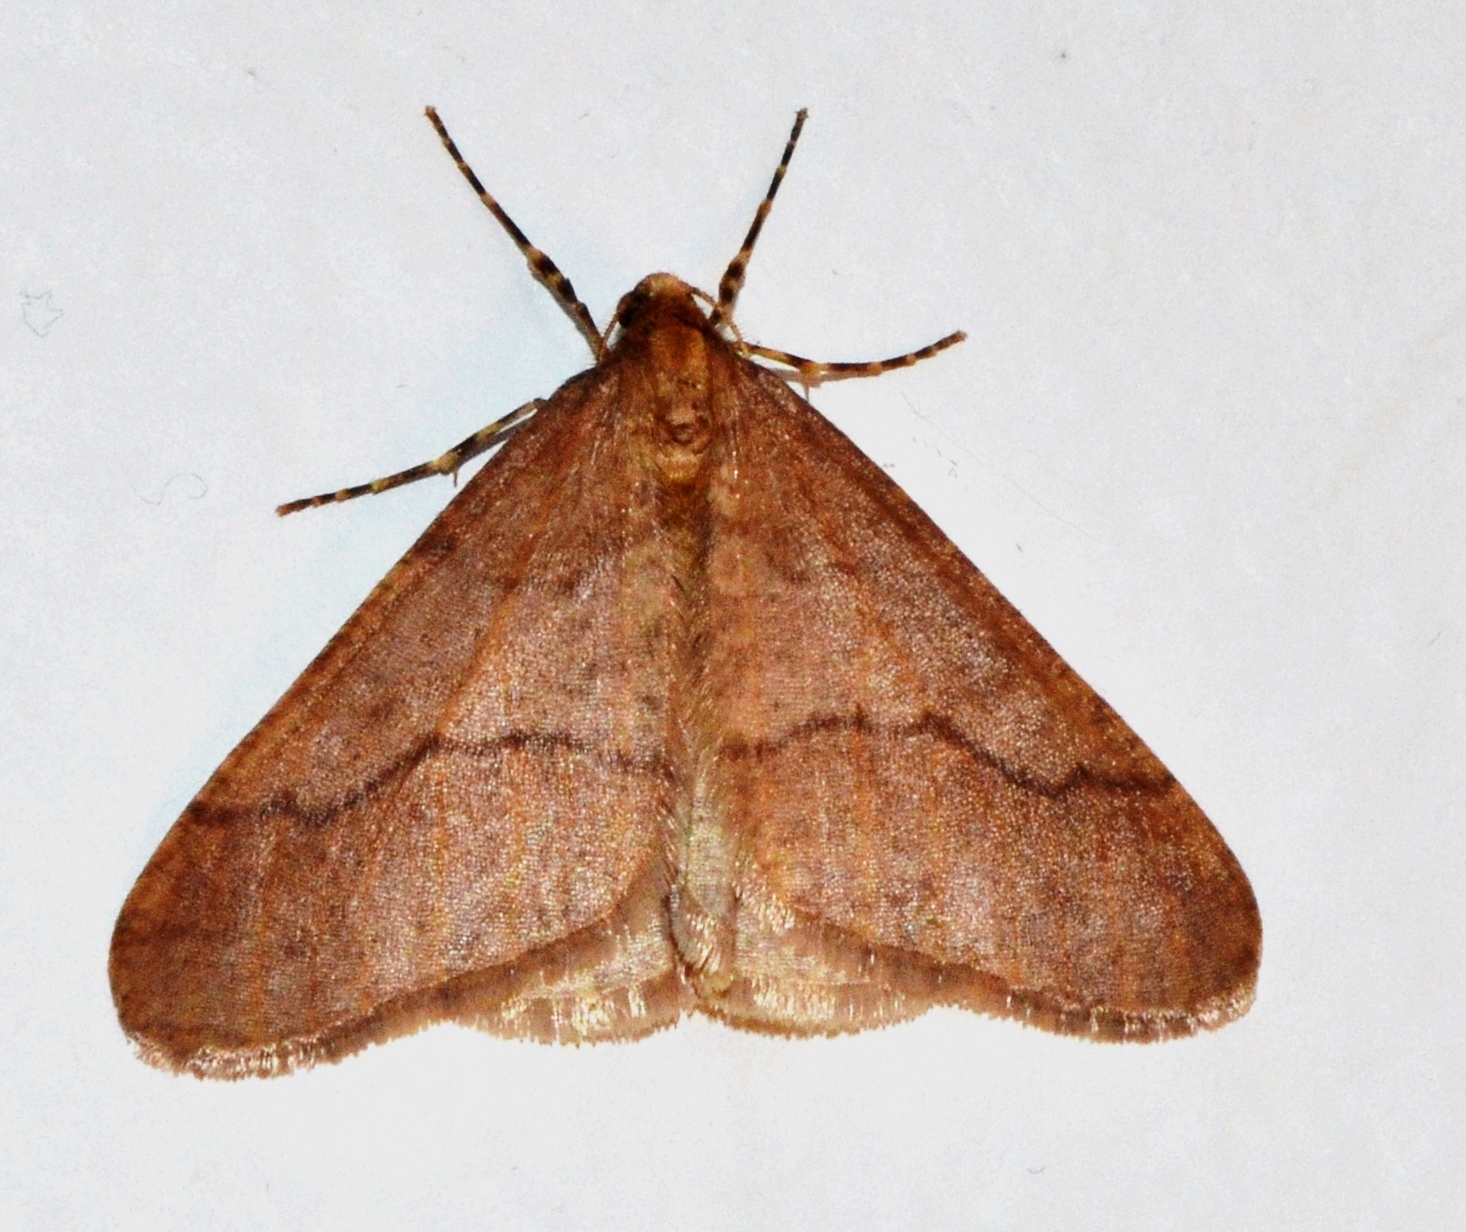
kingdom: Animalia
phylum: Arthropoda
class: Insecta
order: Lepidoptera
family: Geometridae
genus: Erannis
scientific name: Erannis tiliaria
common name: Linden looper
